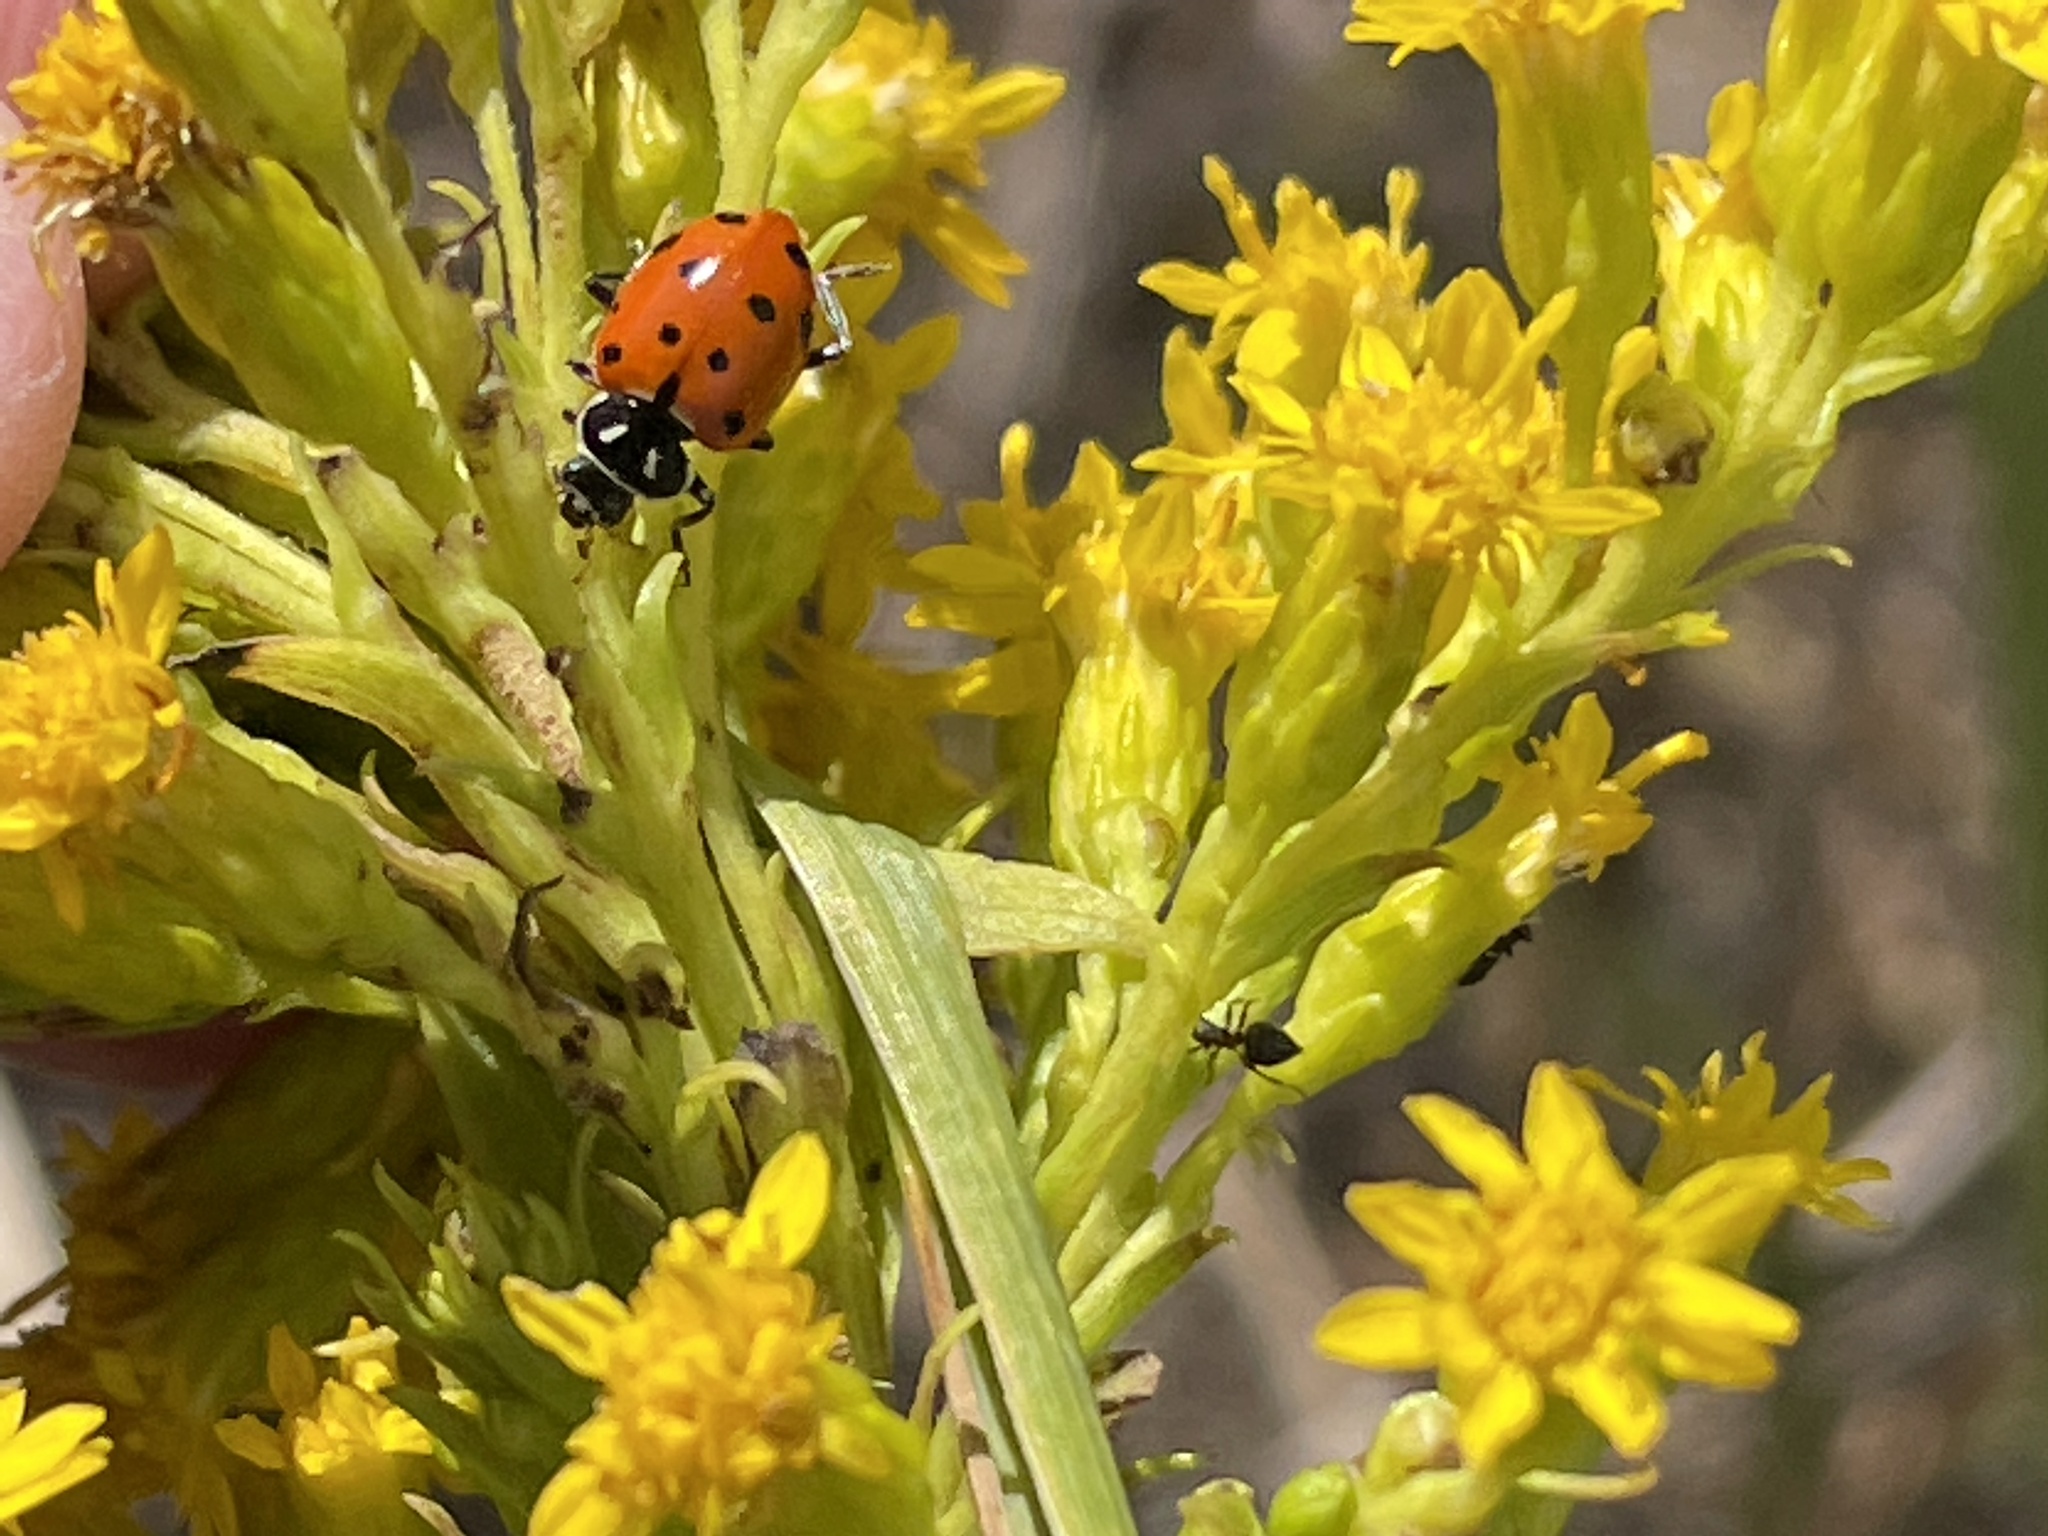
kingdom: Animalia
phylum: Arthropoda
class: Insecta
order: Coleoptera
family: Coccinellidae
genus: Hippodamia
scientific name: Hippodamia convergens
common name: Convergent lady beetle
